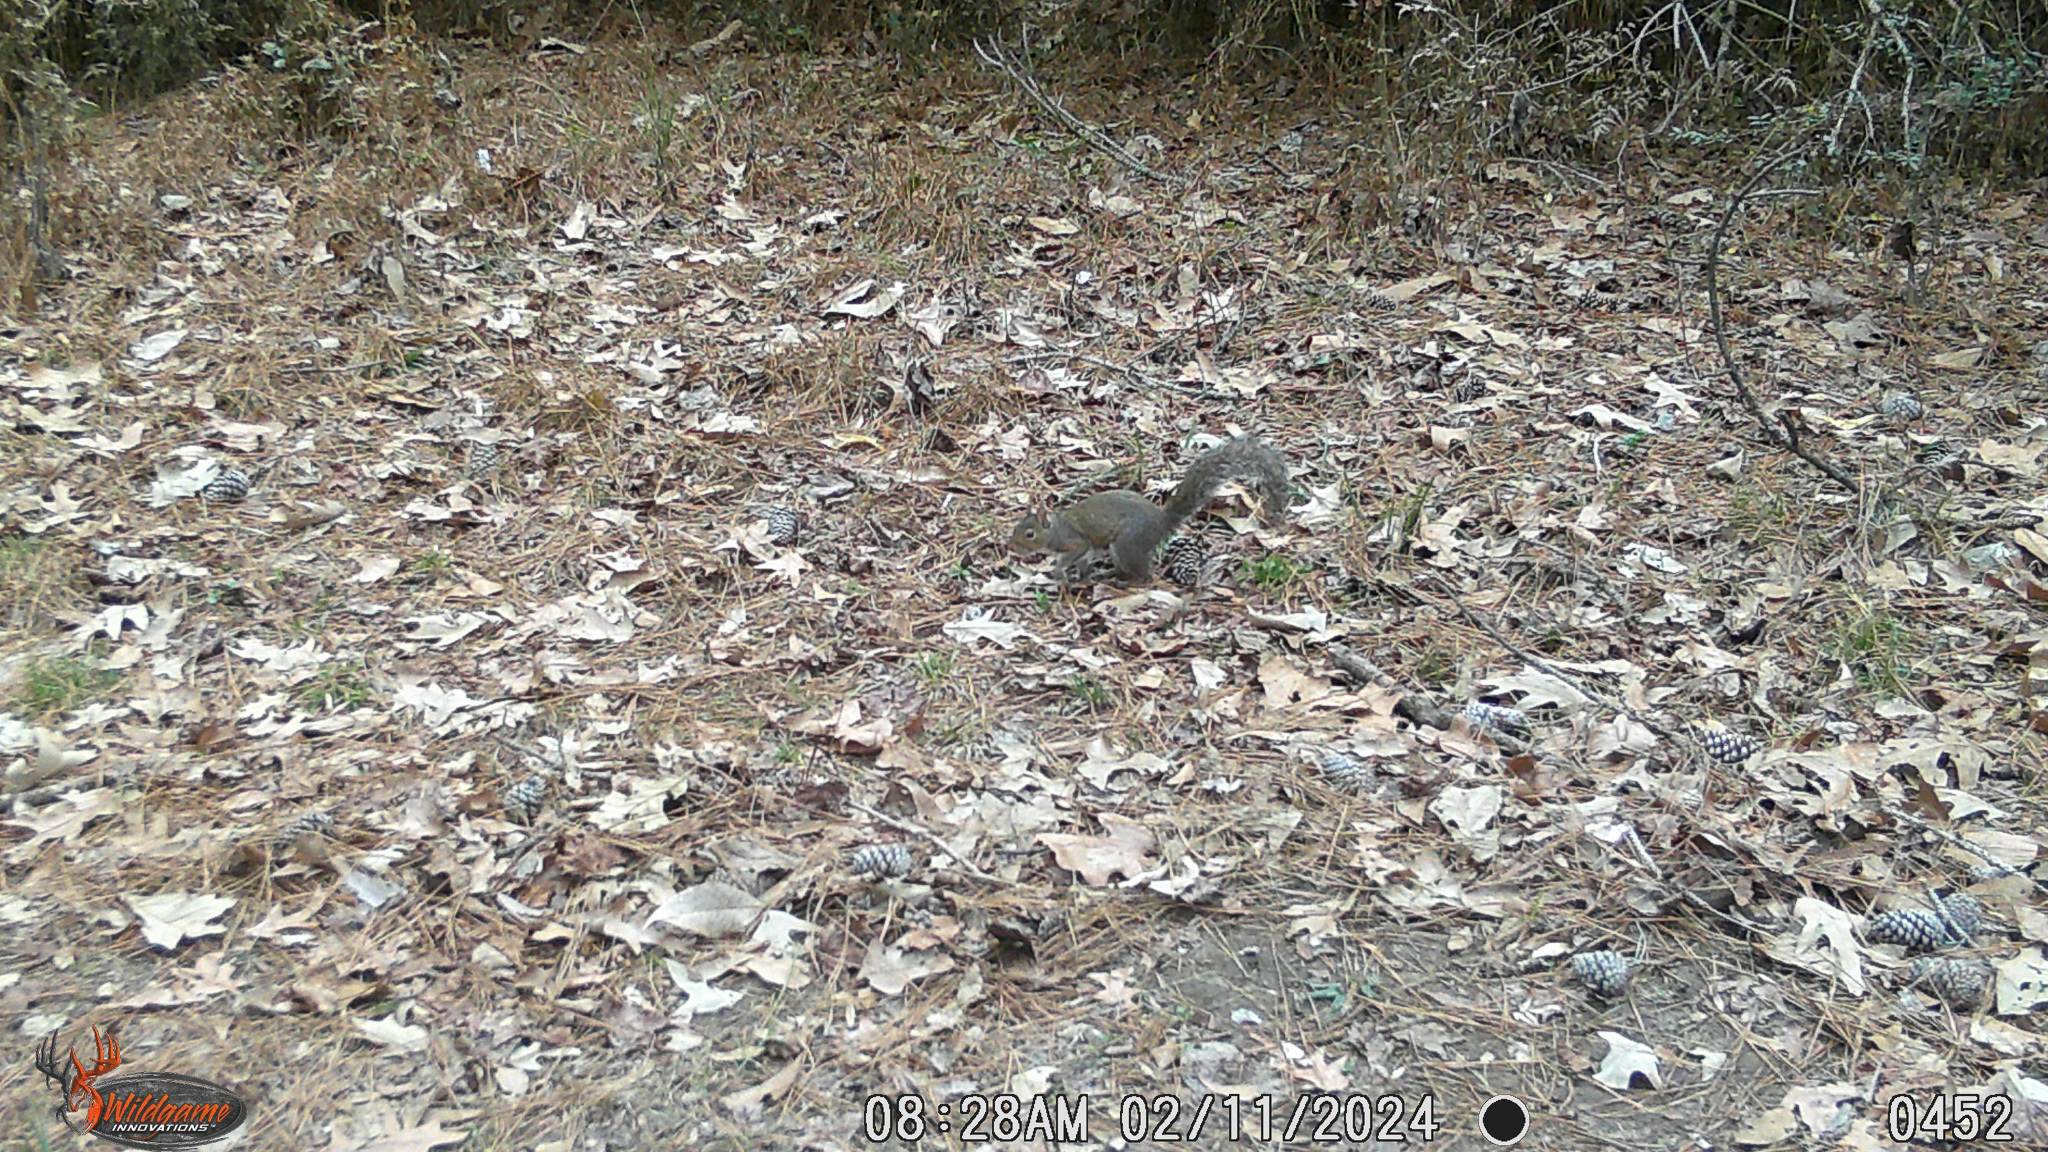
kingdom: Animalia
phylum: Chordata
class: Mammalia
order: Rodentia
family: Sciuridae
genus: Sciurus
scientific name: Sciurus carolinensis
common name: Eastern gray squirrel
